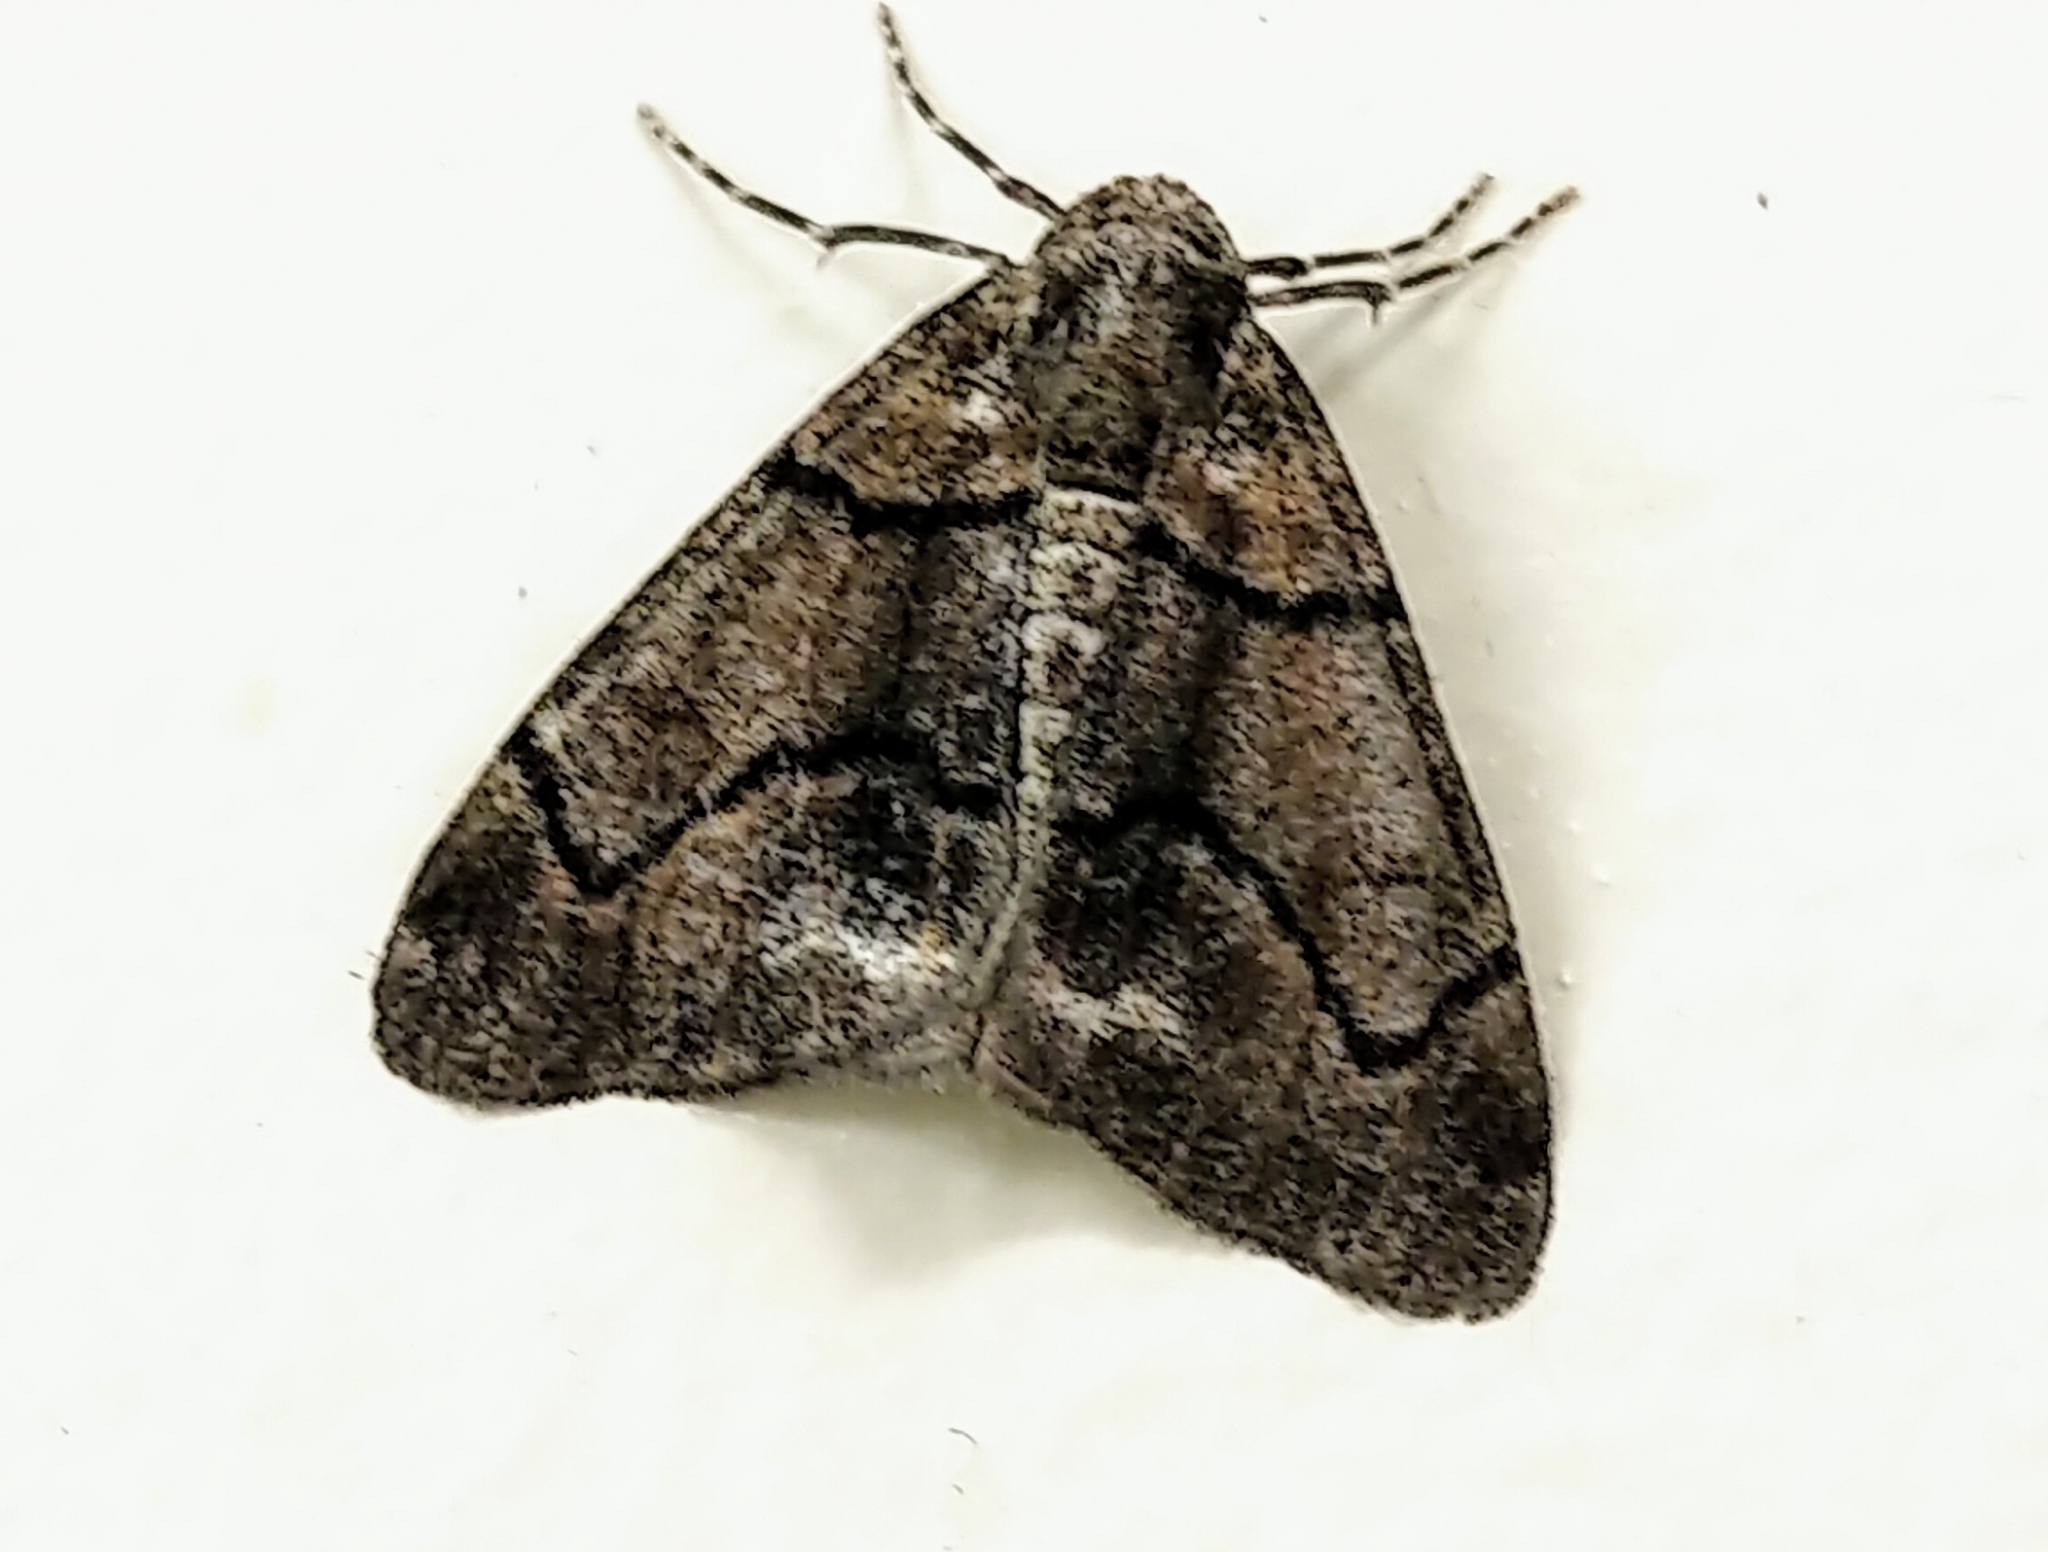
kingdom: Animalia
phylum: Arthropoda
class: Insecta
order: Lepidoptera
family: Geometridae
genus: Gabriola
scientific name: Gabriola dyari
